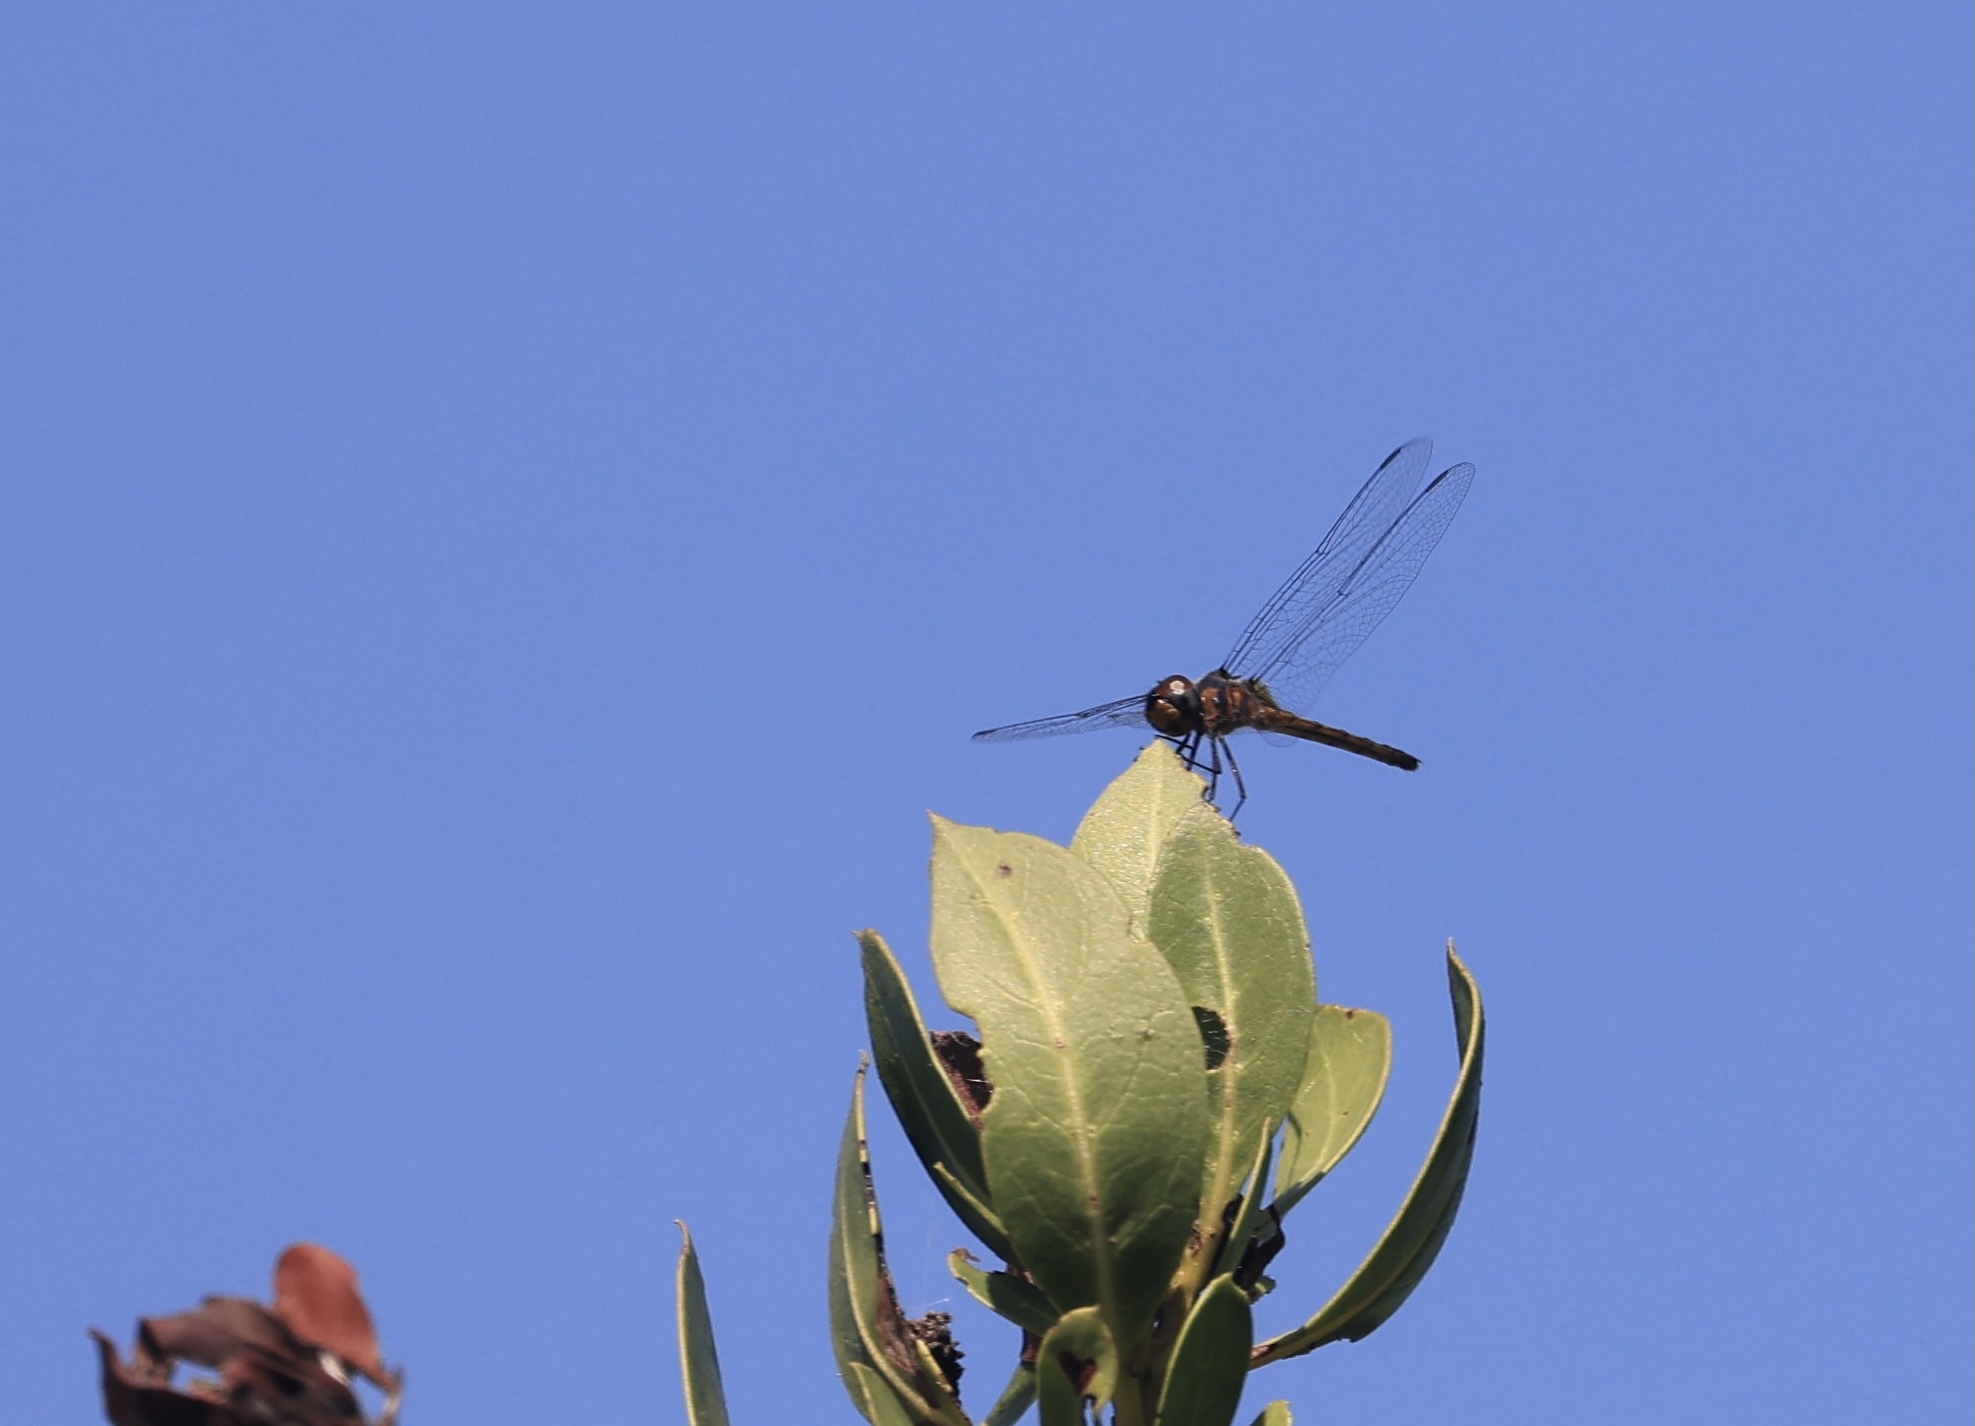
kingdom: Animalia
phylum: Arthropoda
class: Insecta
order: Odonata
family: Libellulidae
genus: Idiataphe
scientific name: Idiataphe cubensis
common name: Metallic pennant
